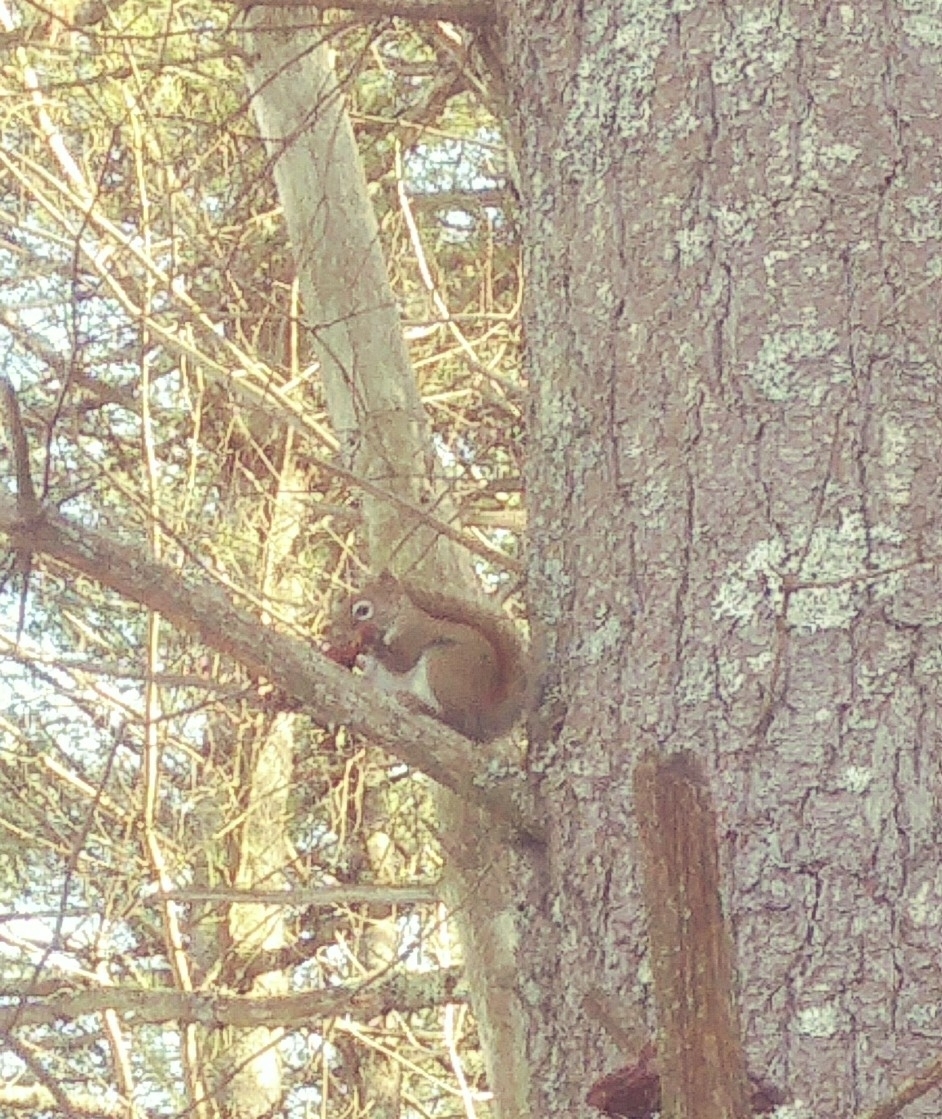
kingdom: Animalia
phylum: Chordata
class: Mammalia
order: Rodentia
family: Sciuridae
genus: Tamiasciurus
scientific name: Tamiasciurus hudsonicus
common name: Red squirrel
